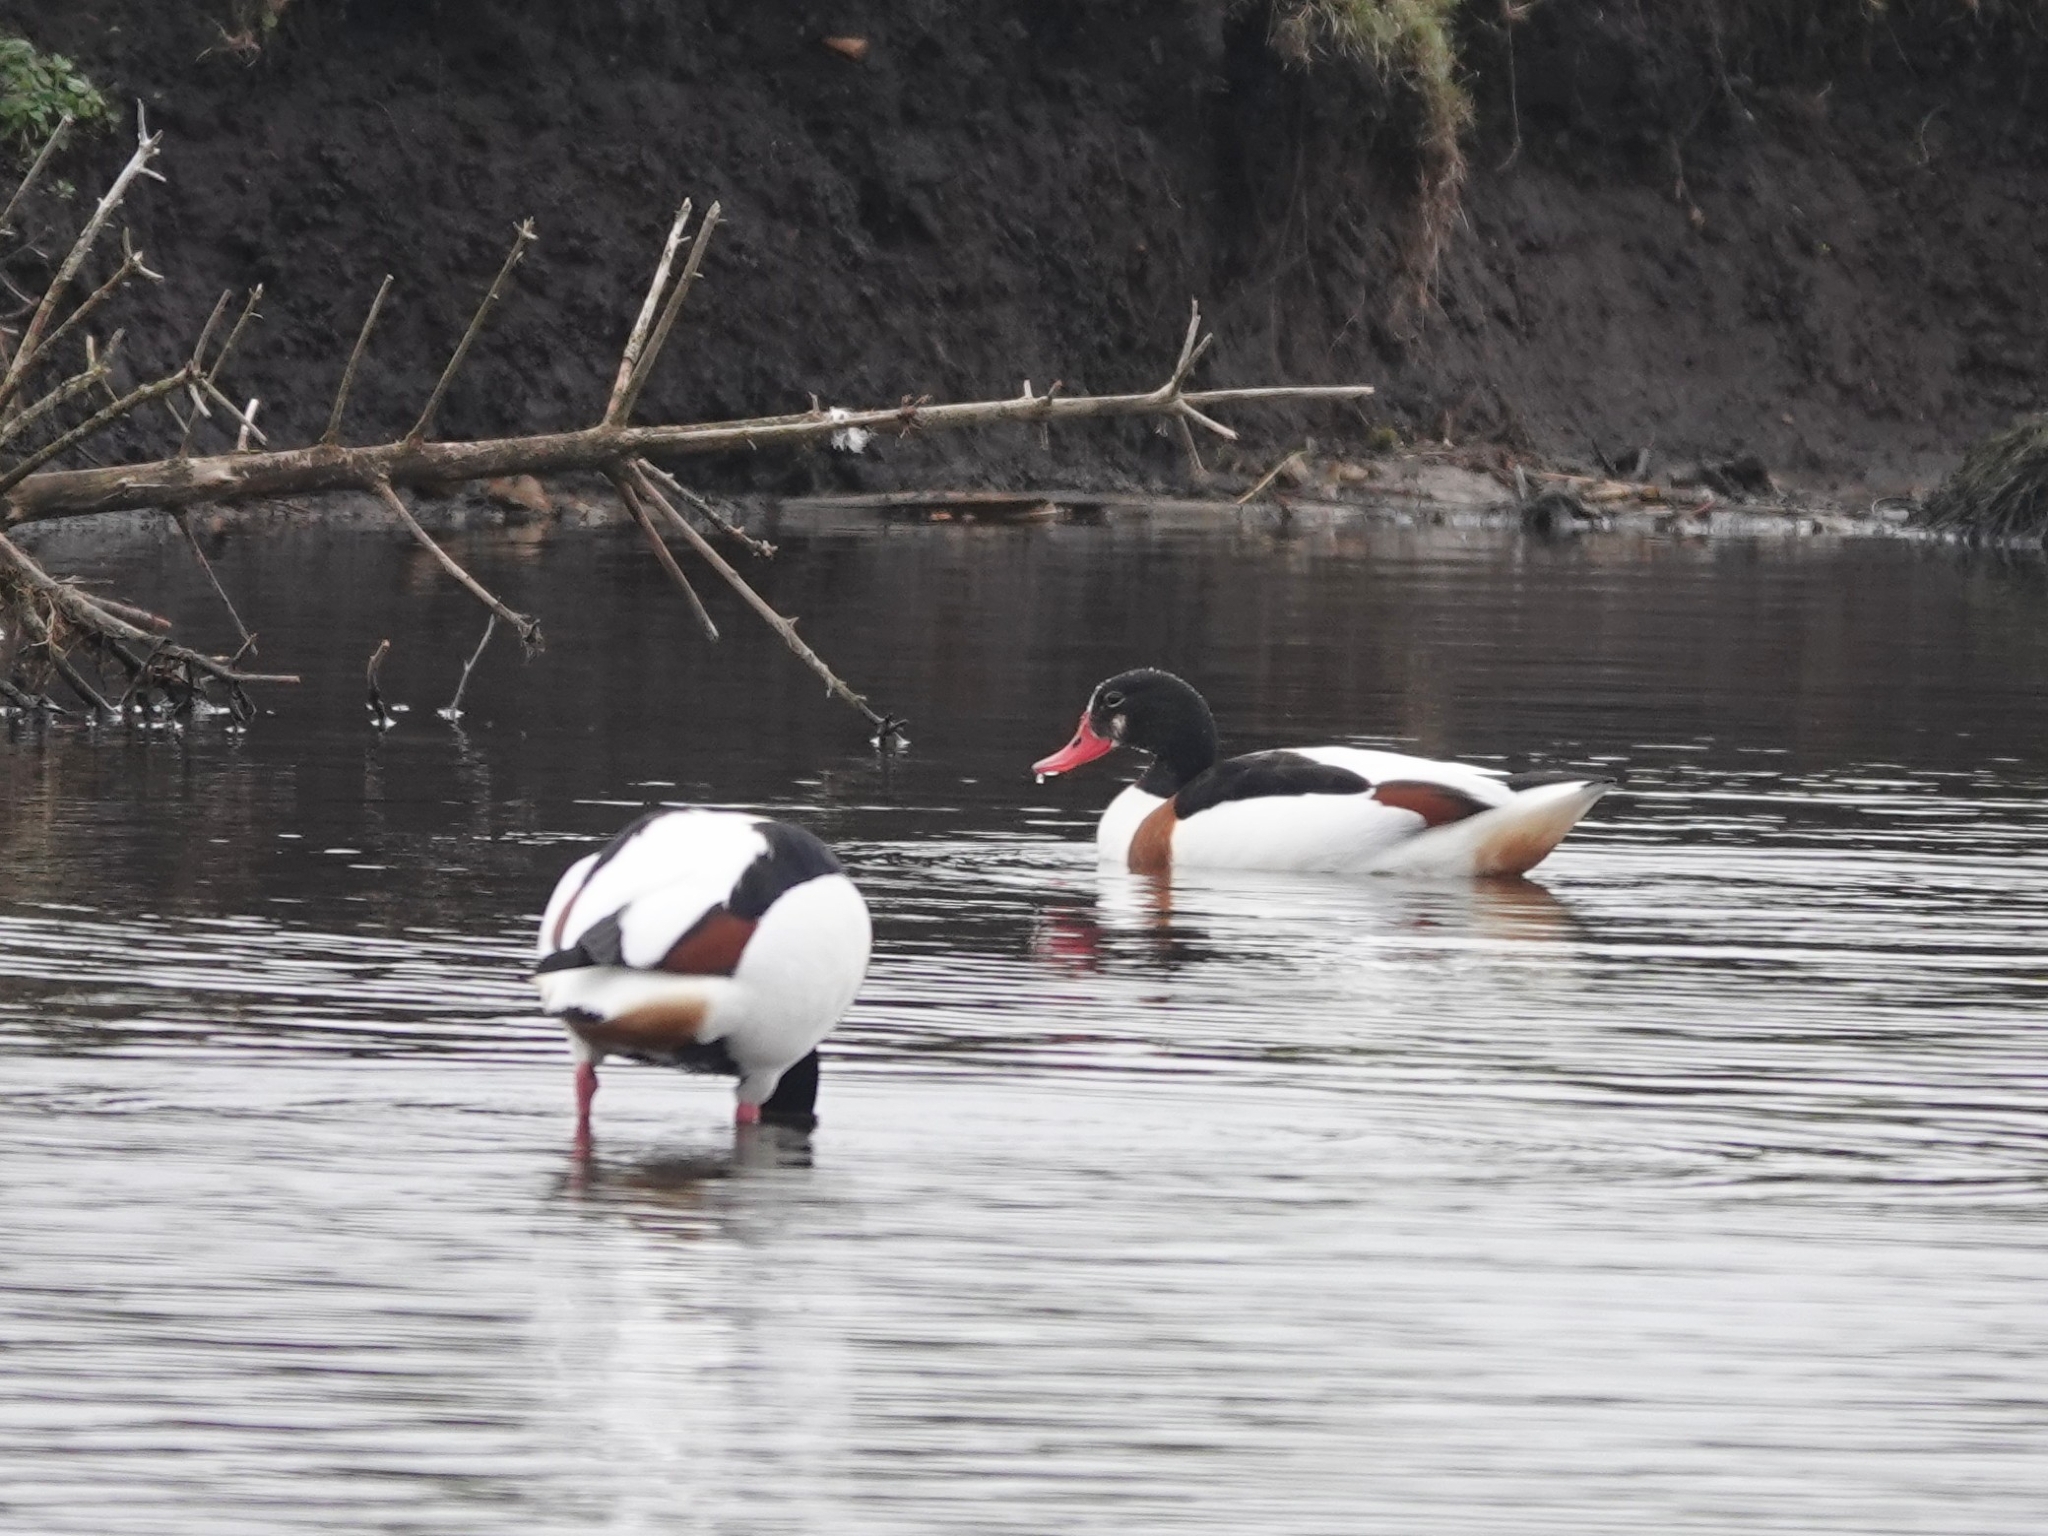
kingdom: Animalia
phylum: Chordata
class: Aves
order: Anseriformes
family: Anatidae
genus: Tadorna
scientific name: Tadorna tadorna
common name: Common shelduck
